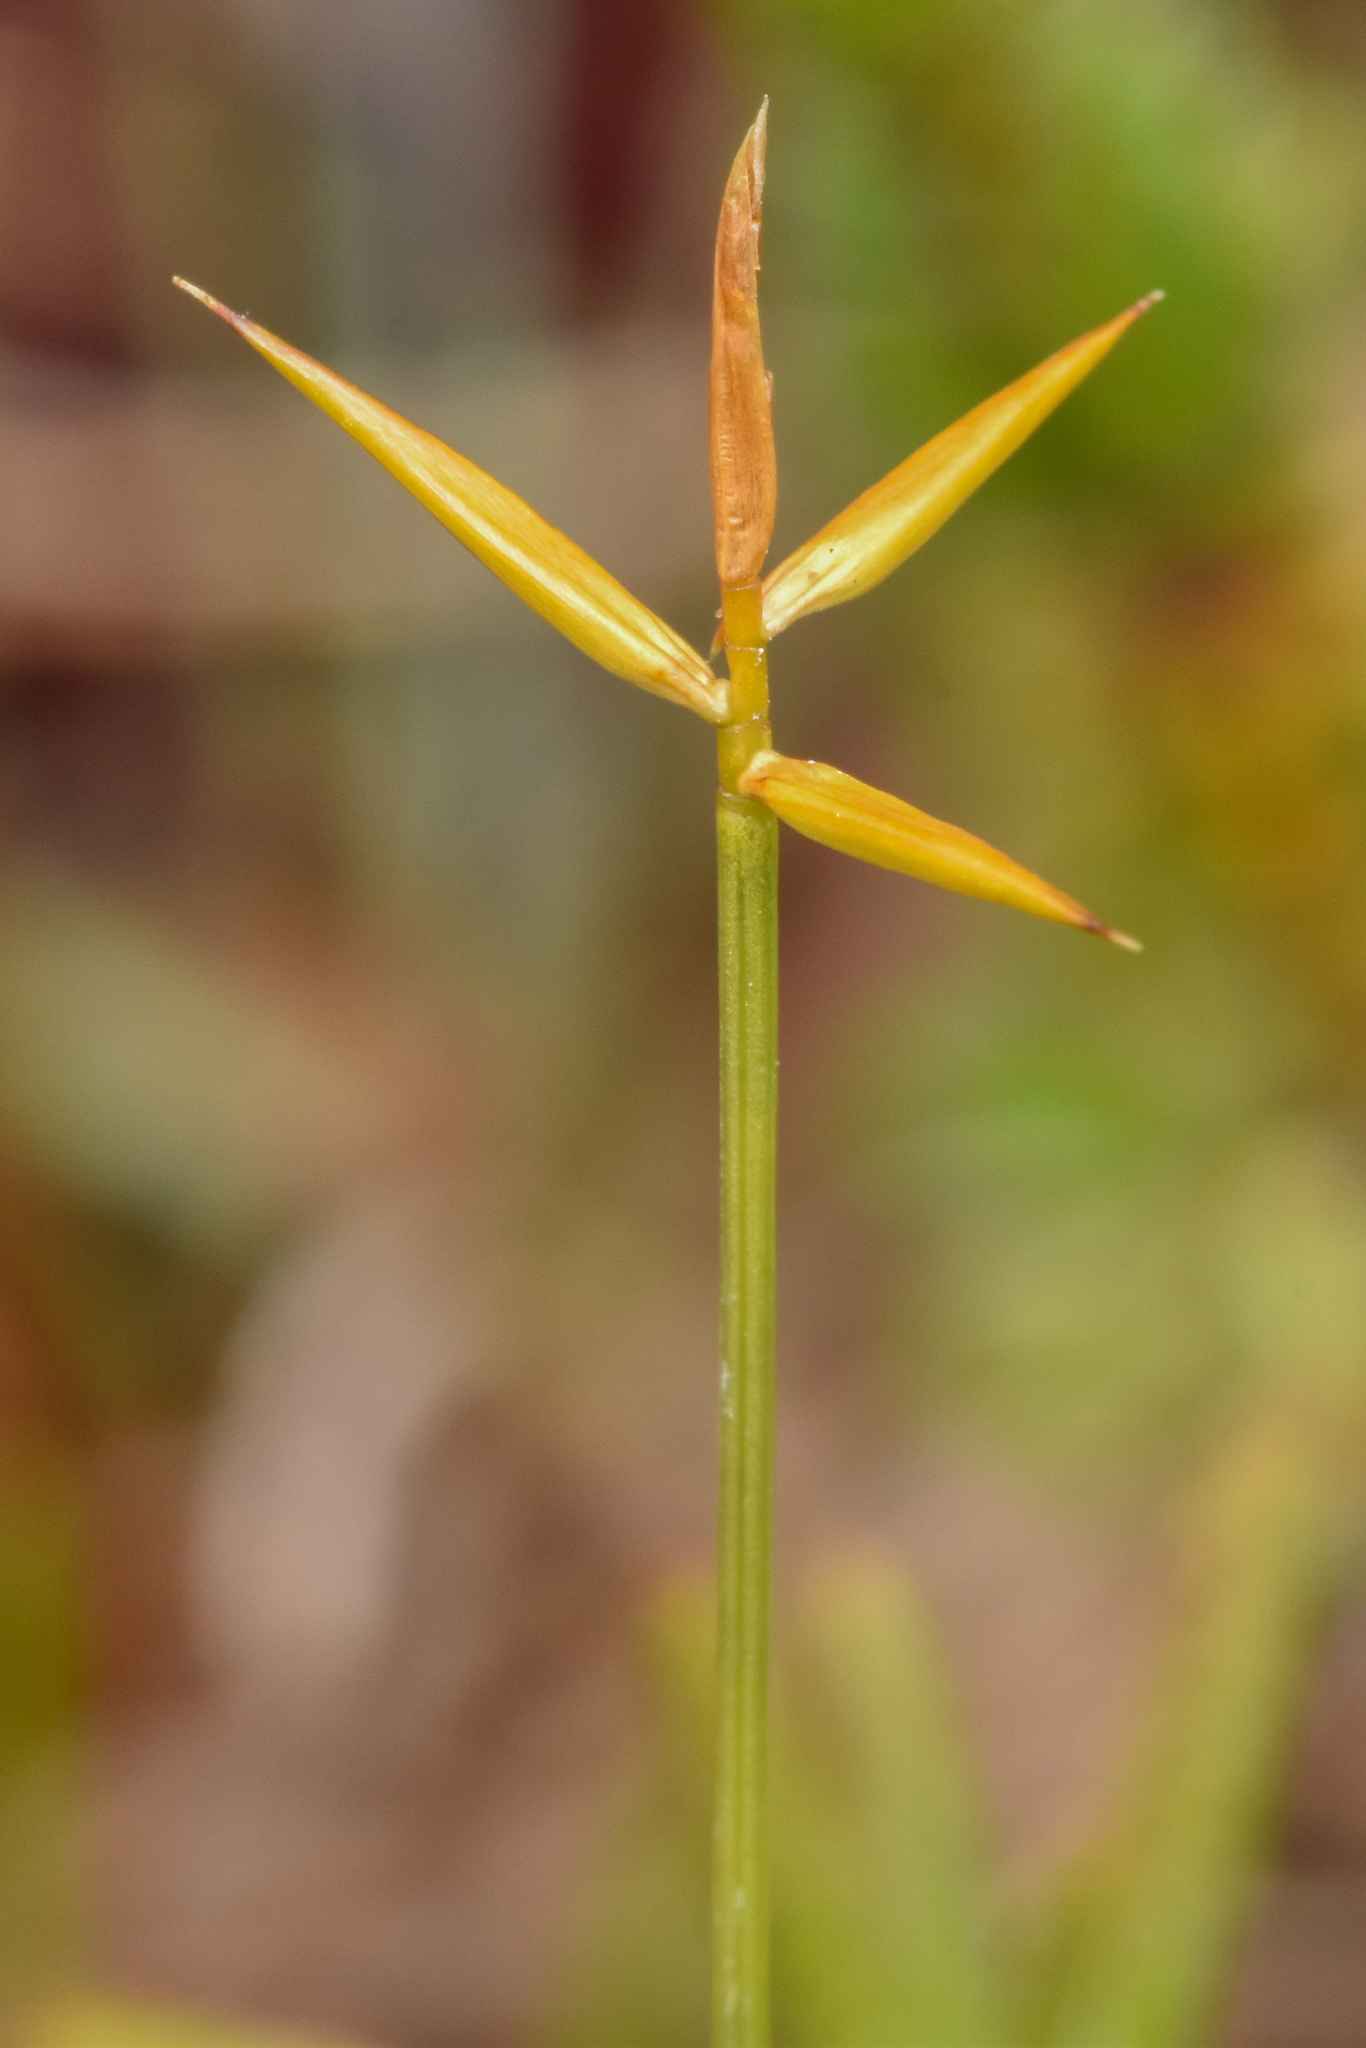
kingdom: Plantae
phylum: Tracheophyta
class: Liliopsida
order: Poales
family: Cyperaceae
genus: Carex
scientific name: Carex pauciflora
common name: Few-flowered sedge
